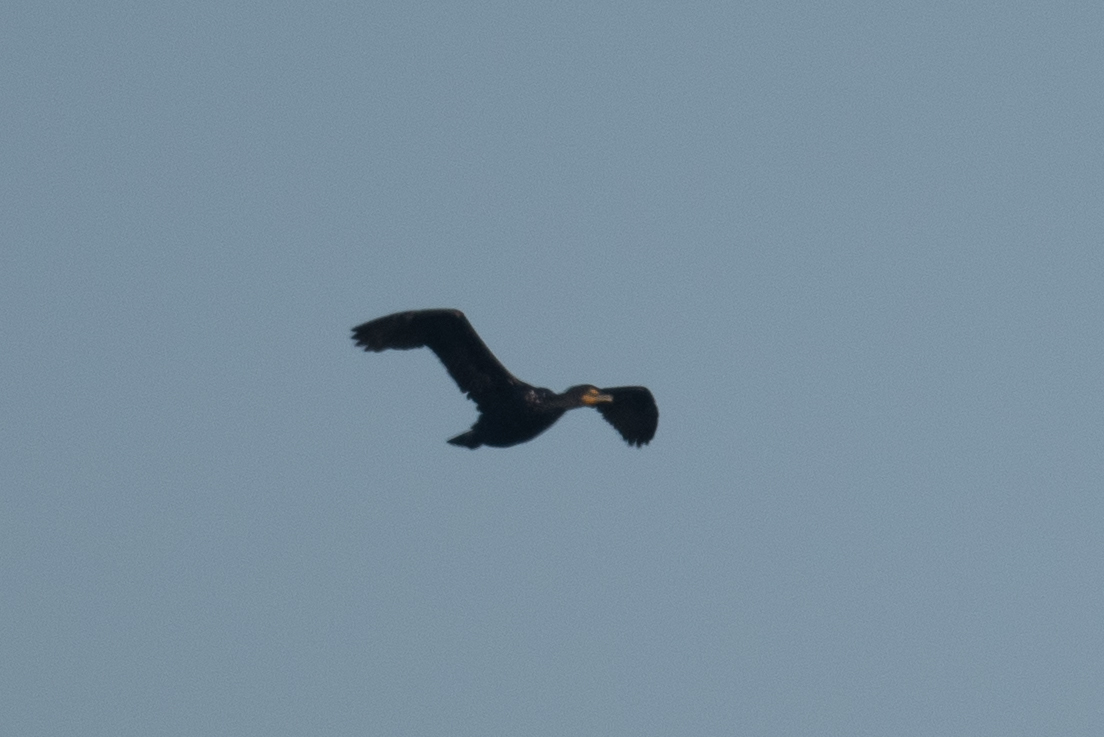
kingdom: Animalia
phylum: Chordata
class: Aves
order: Suliformes
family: Phalacrocoracidae
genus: Phalacrocorax
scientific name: Phalacrocorax auritus
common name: Double-crested cormorant
